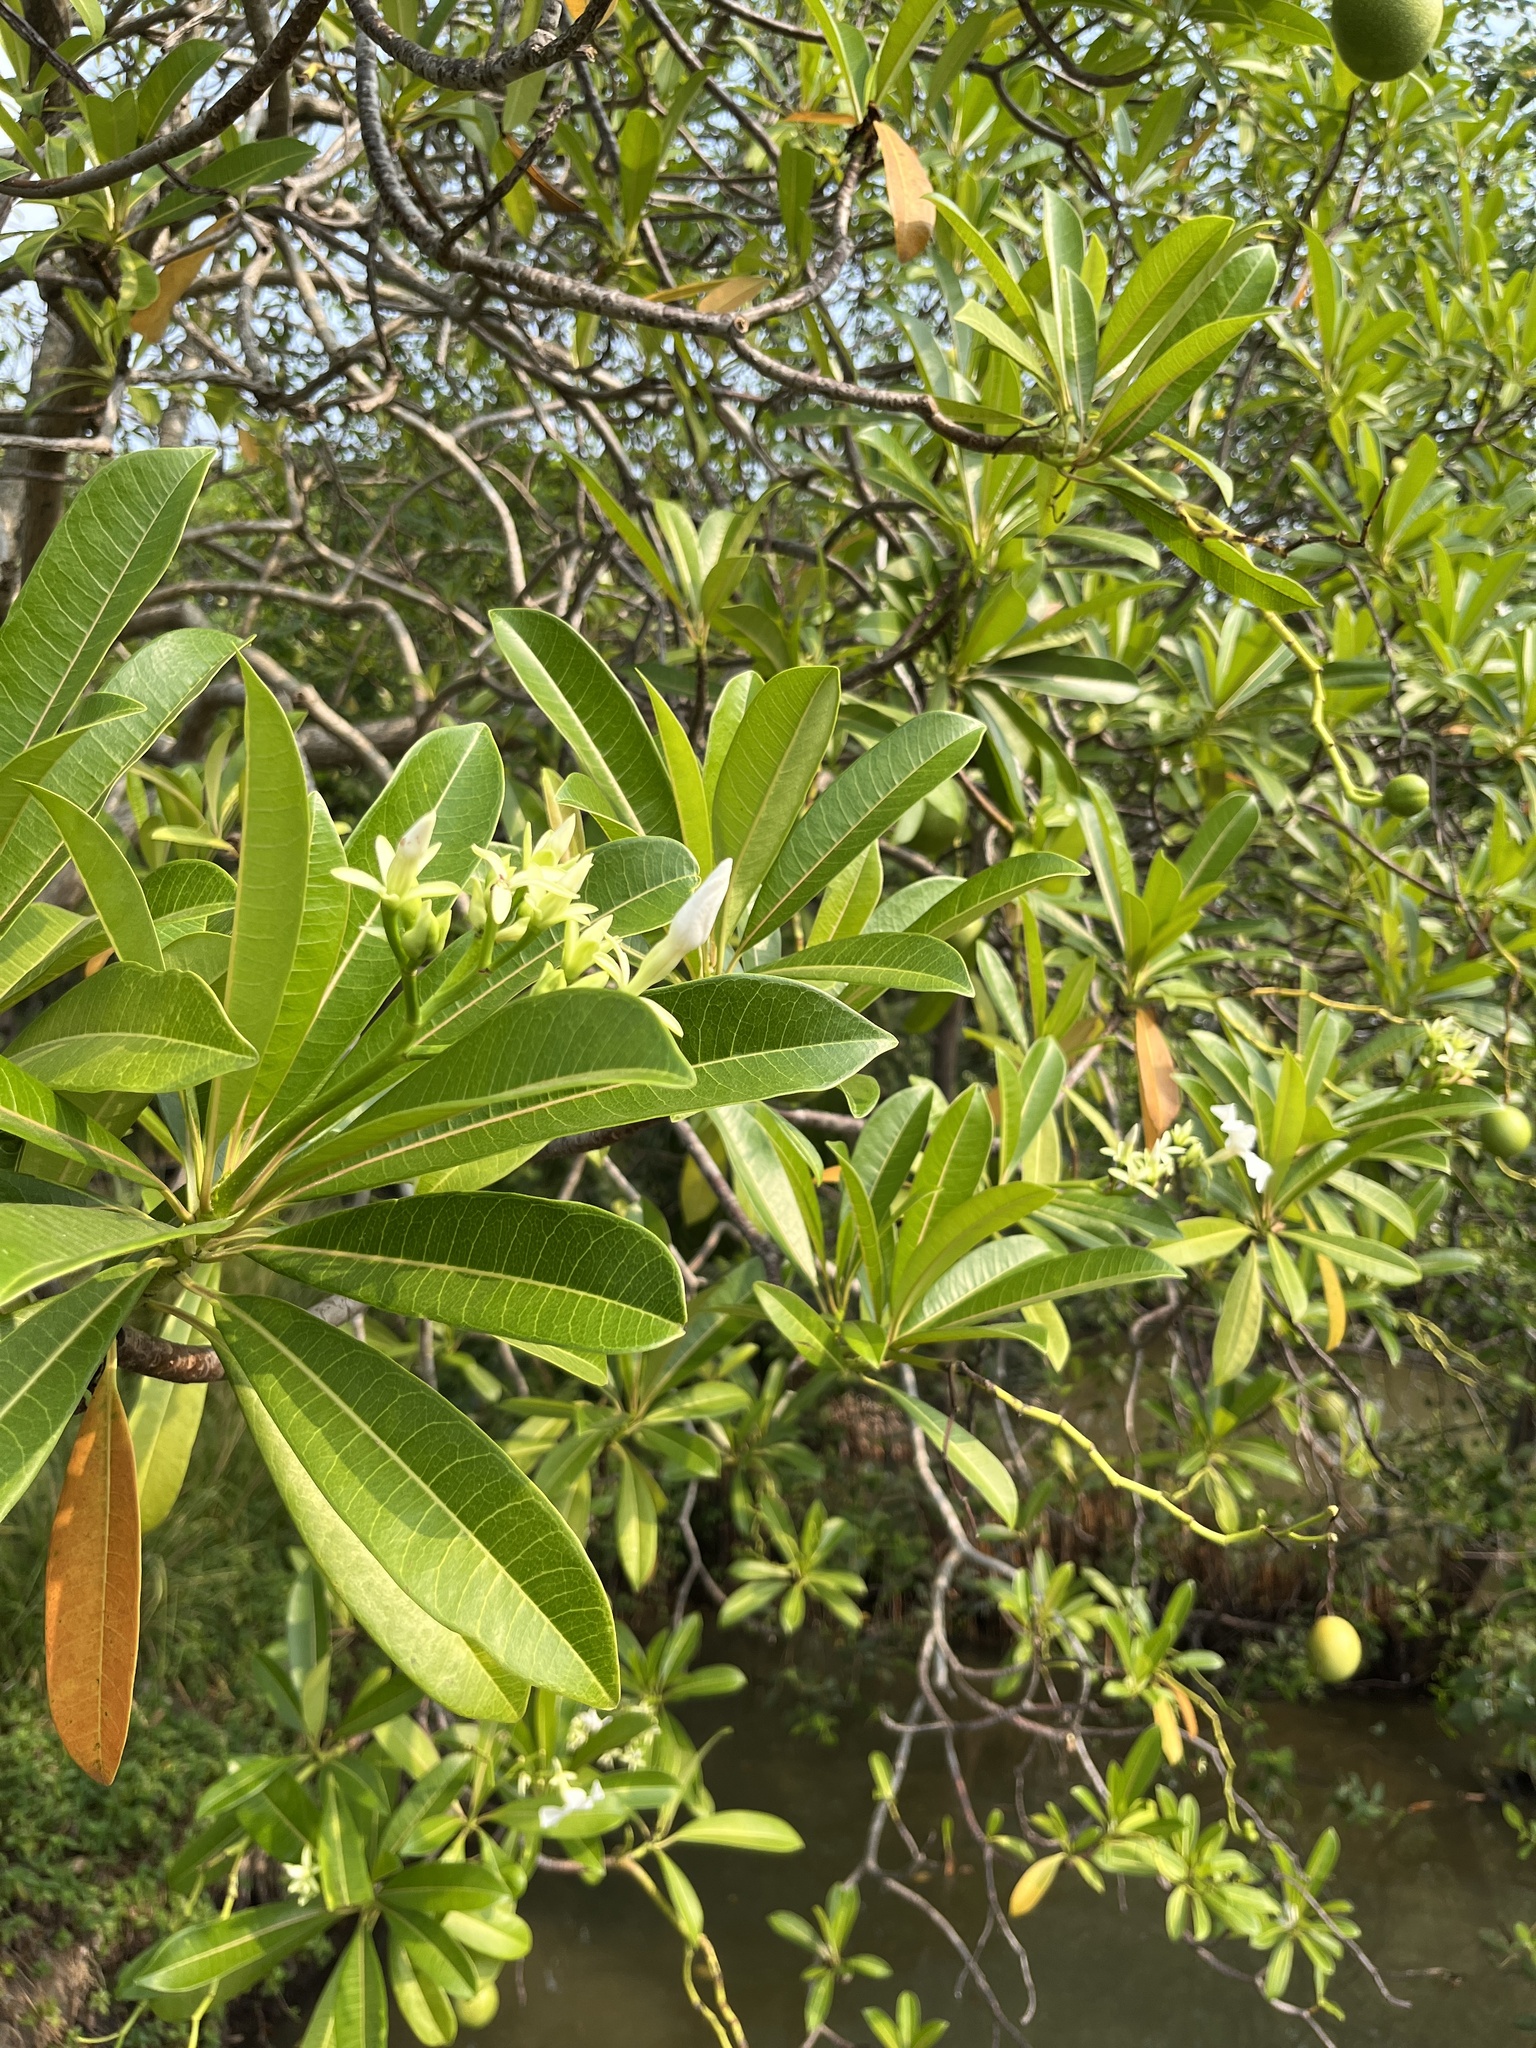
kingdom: Plantae
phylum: Tracheophyta
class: Magnoliopsida
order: Gentianales
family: Apocynaceae
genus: Cerbera
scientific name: Cerbera odollam
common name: Pong-pong
